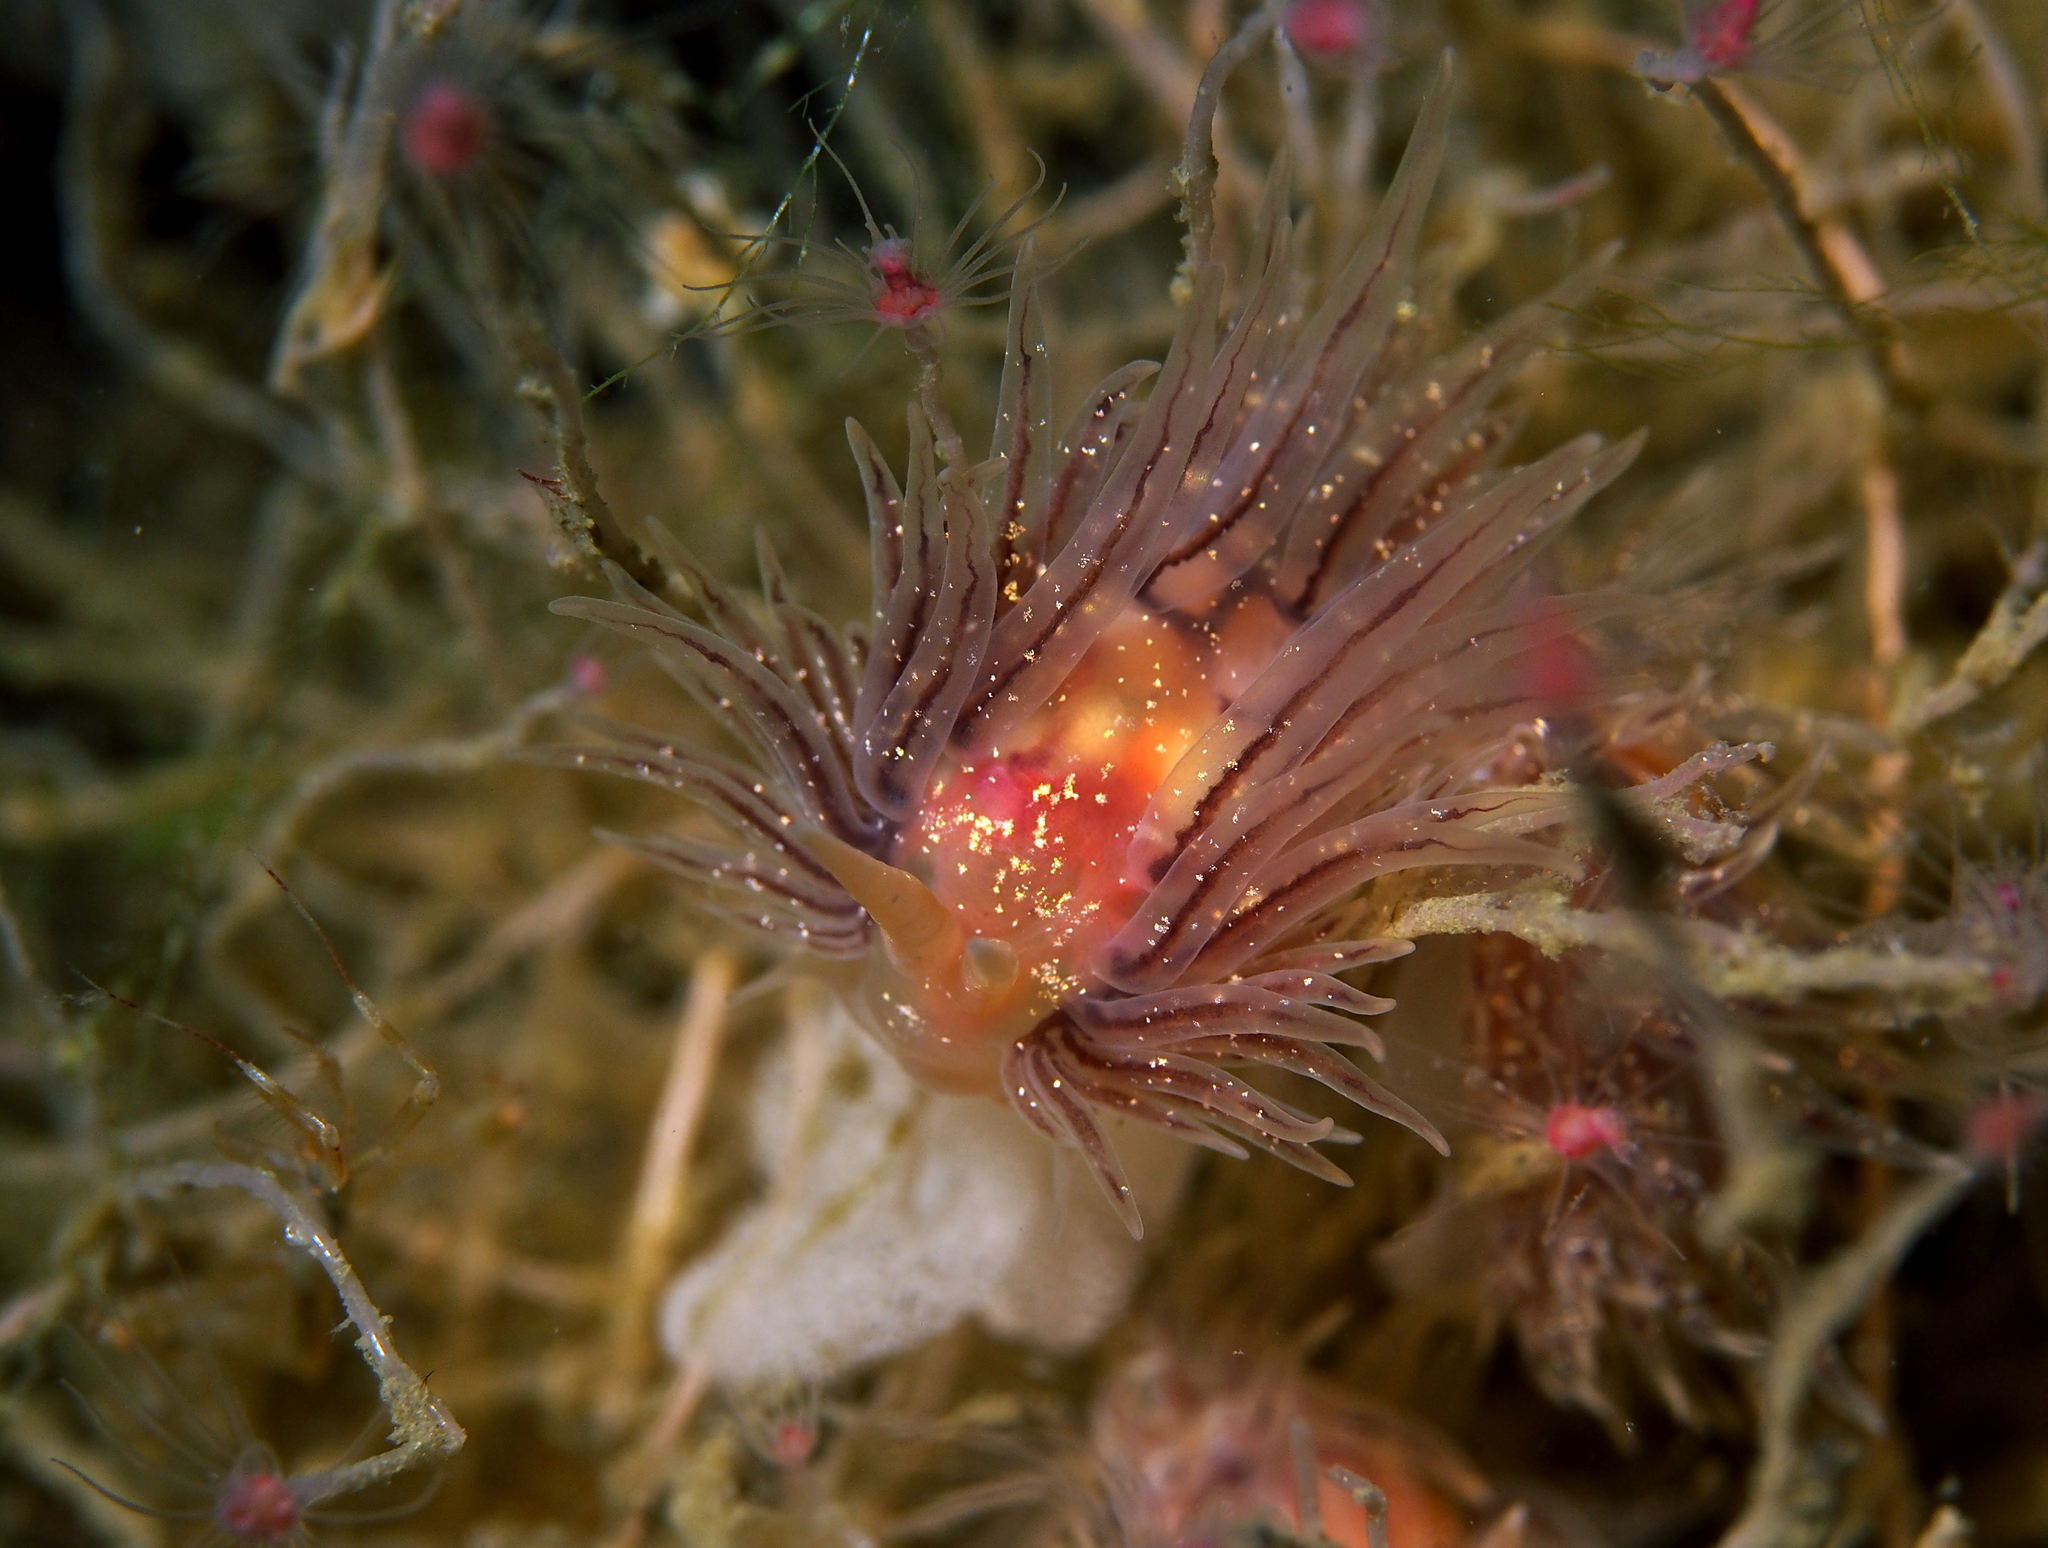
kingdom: Animalia
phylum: Mollusca
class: Gastropoda
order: Nudibranchia
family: Cumanotidae
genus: Cumanotus
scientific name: Cumanotus beaumonti
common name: Polyp aeolis
